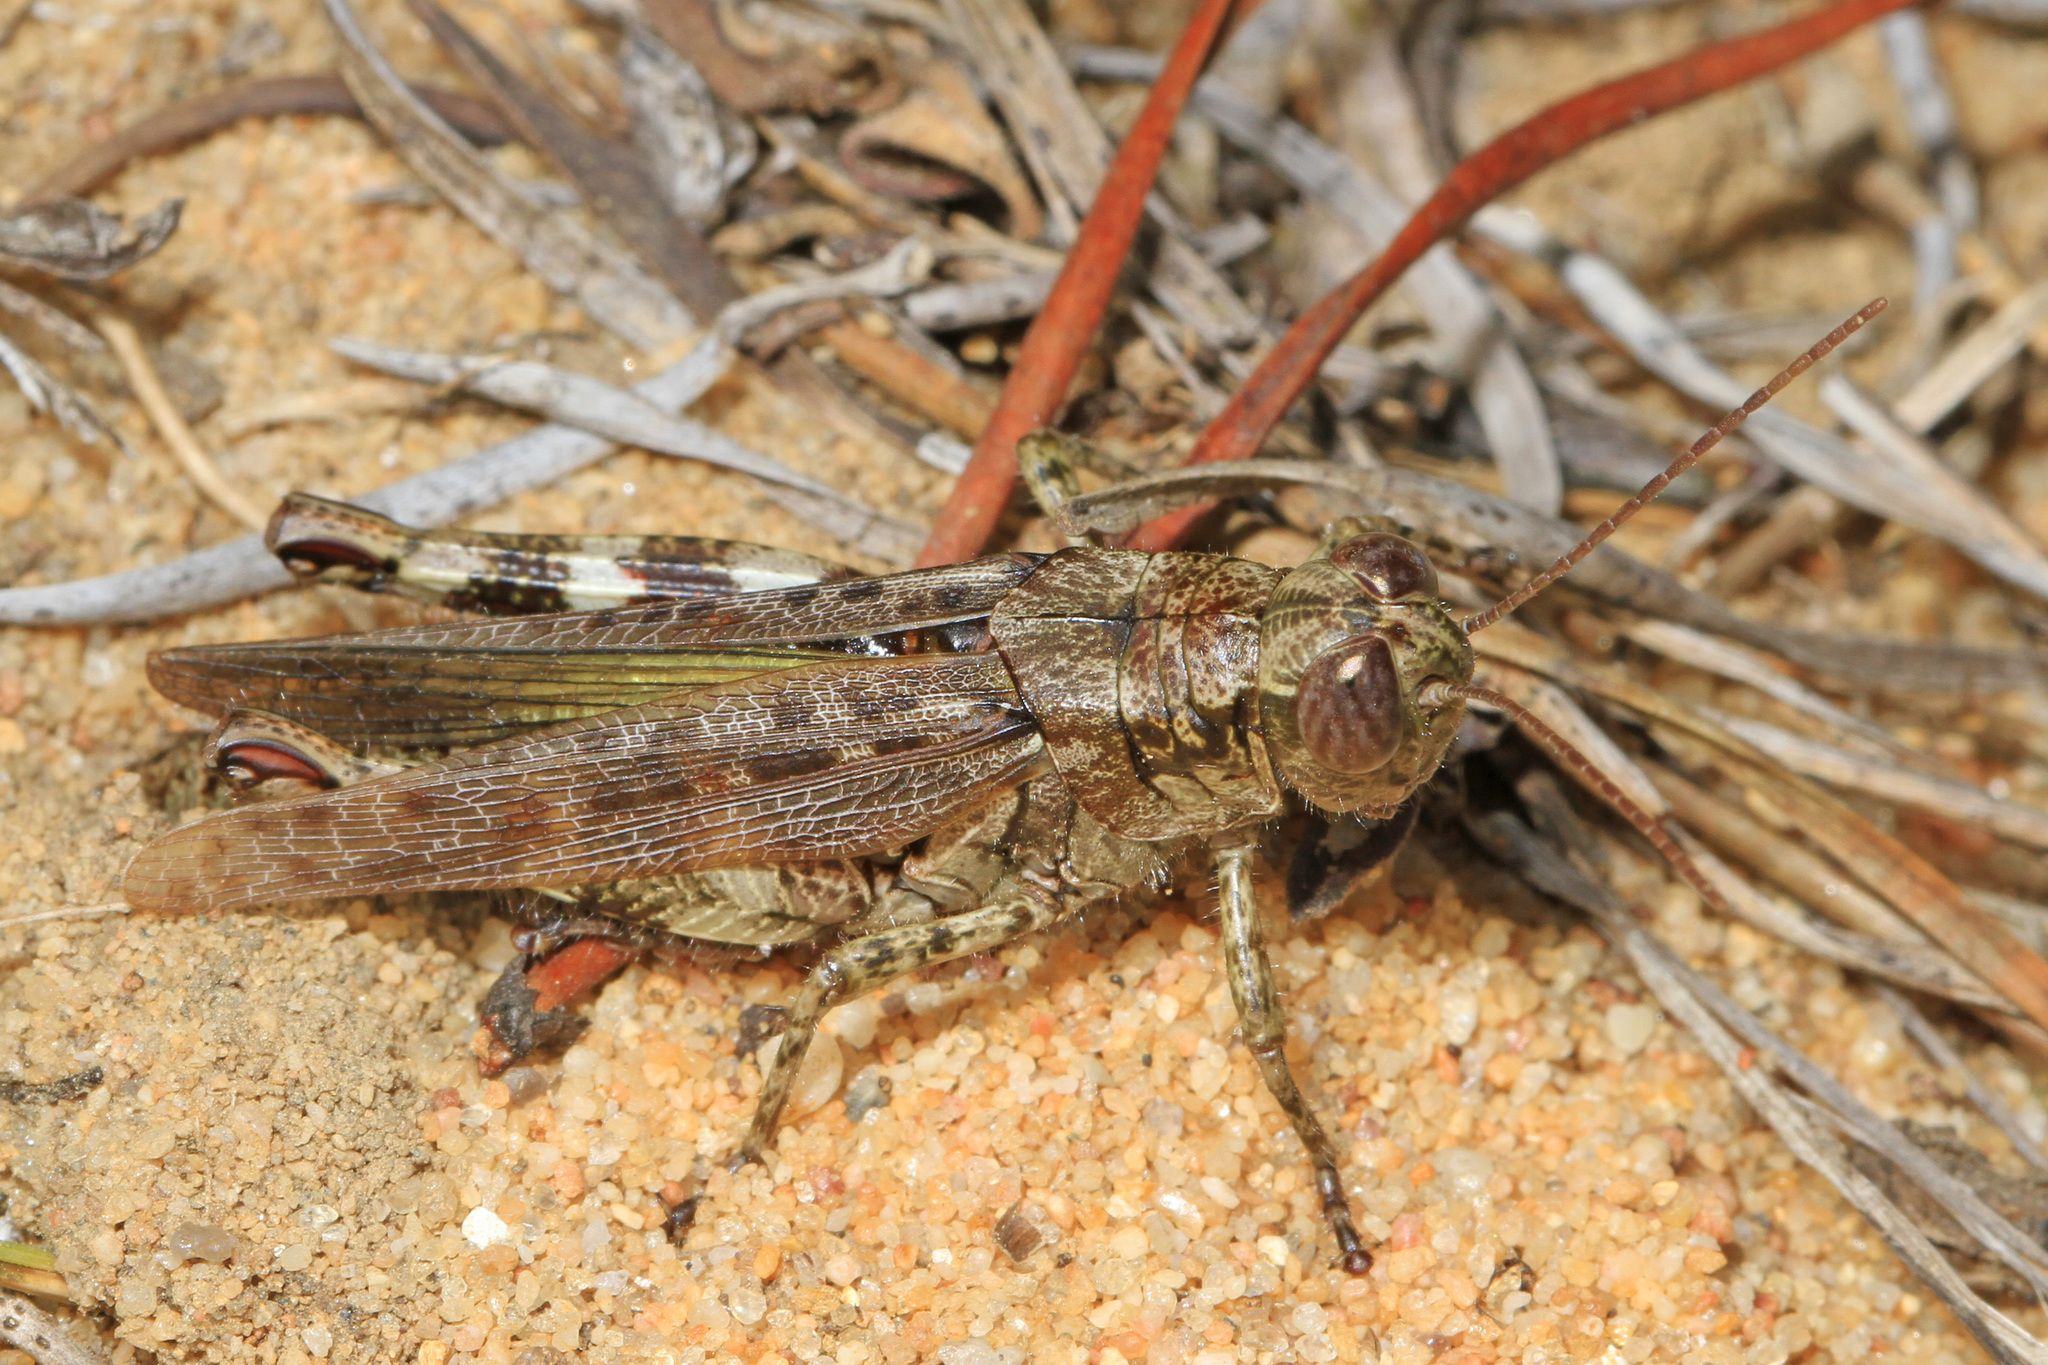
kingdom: Animalia
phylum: Arthropoda
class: Insecta
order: Orthoptera
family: Acrididae
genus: Melanoplus
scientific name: Melanoplus punctulatus
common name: Pine-tree spur-throat grasshopper
